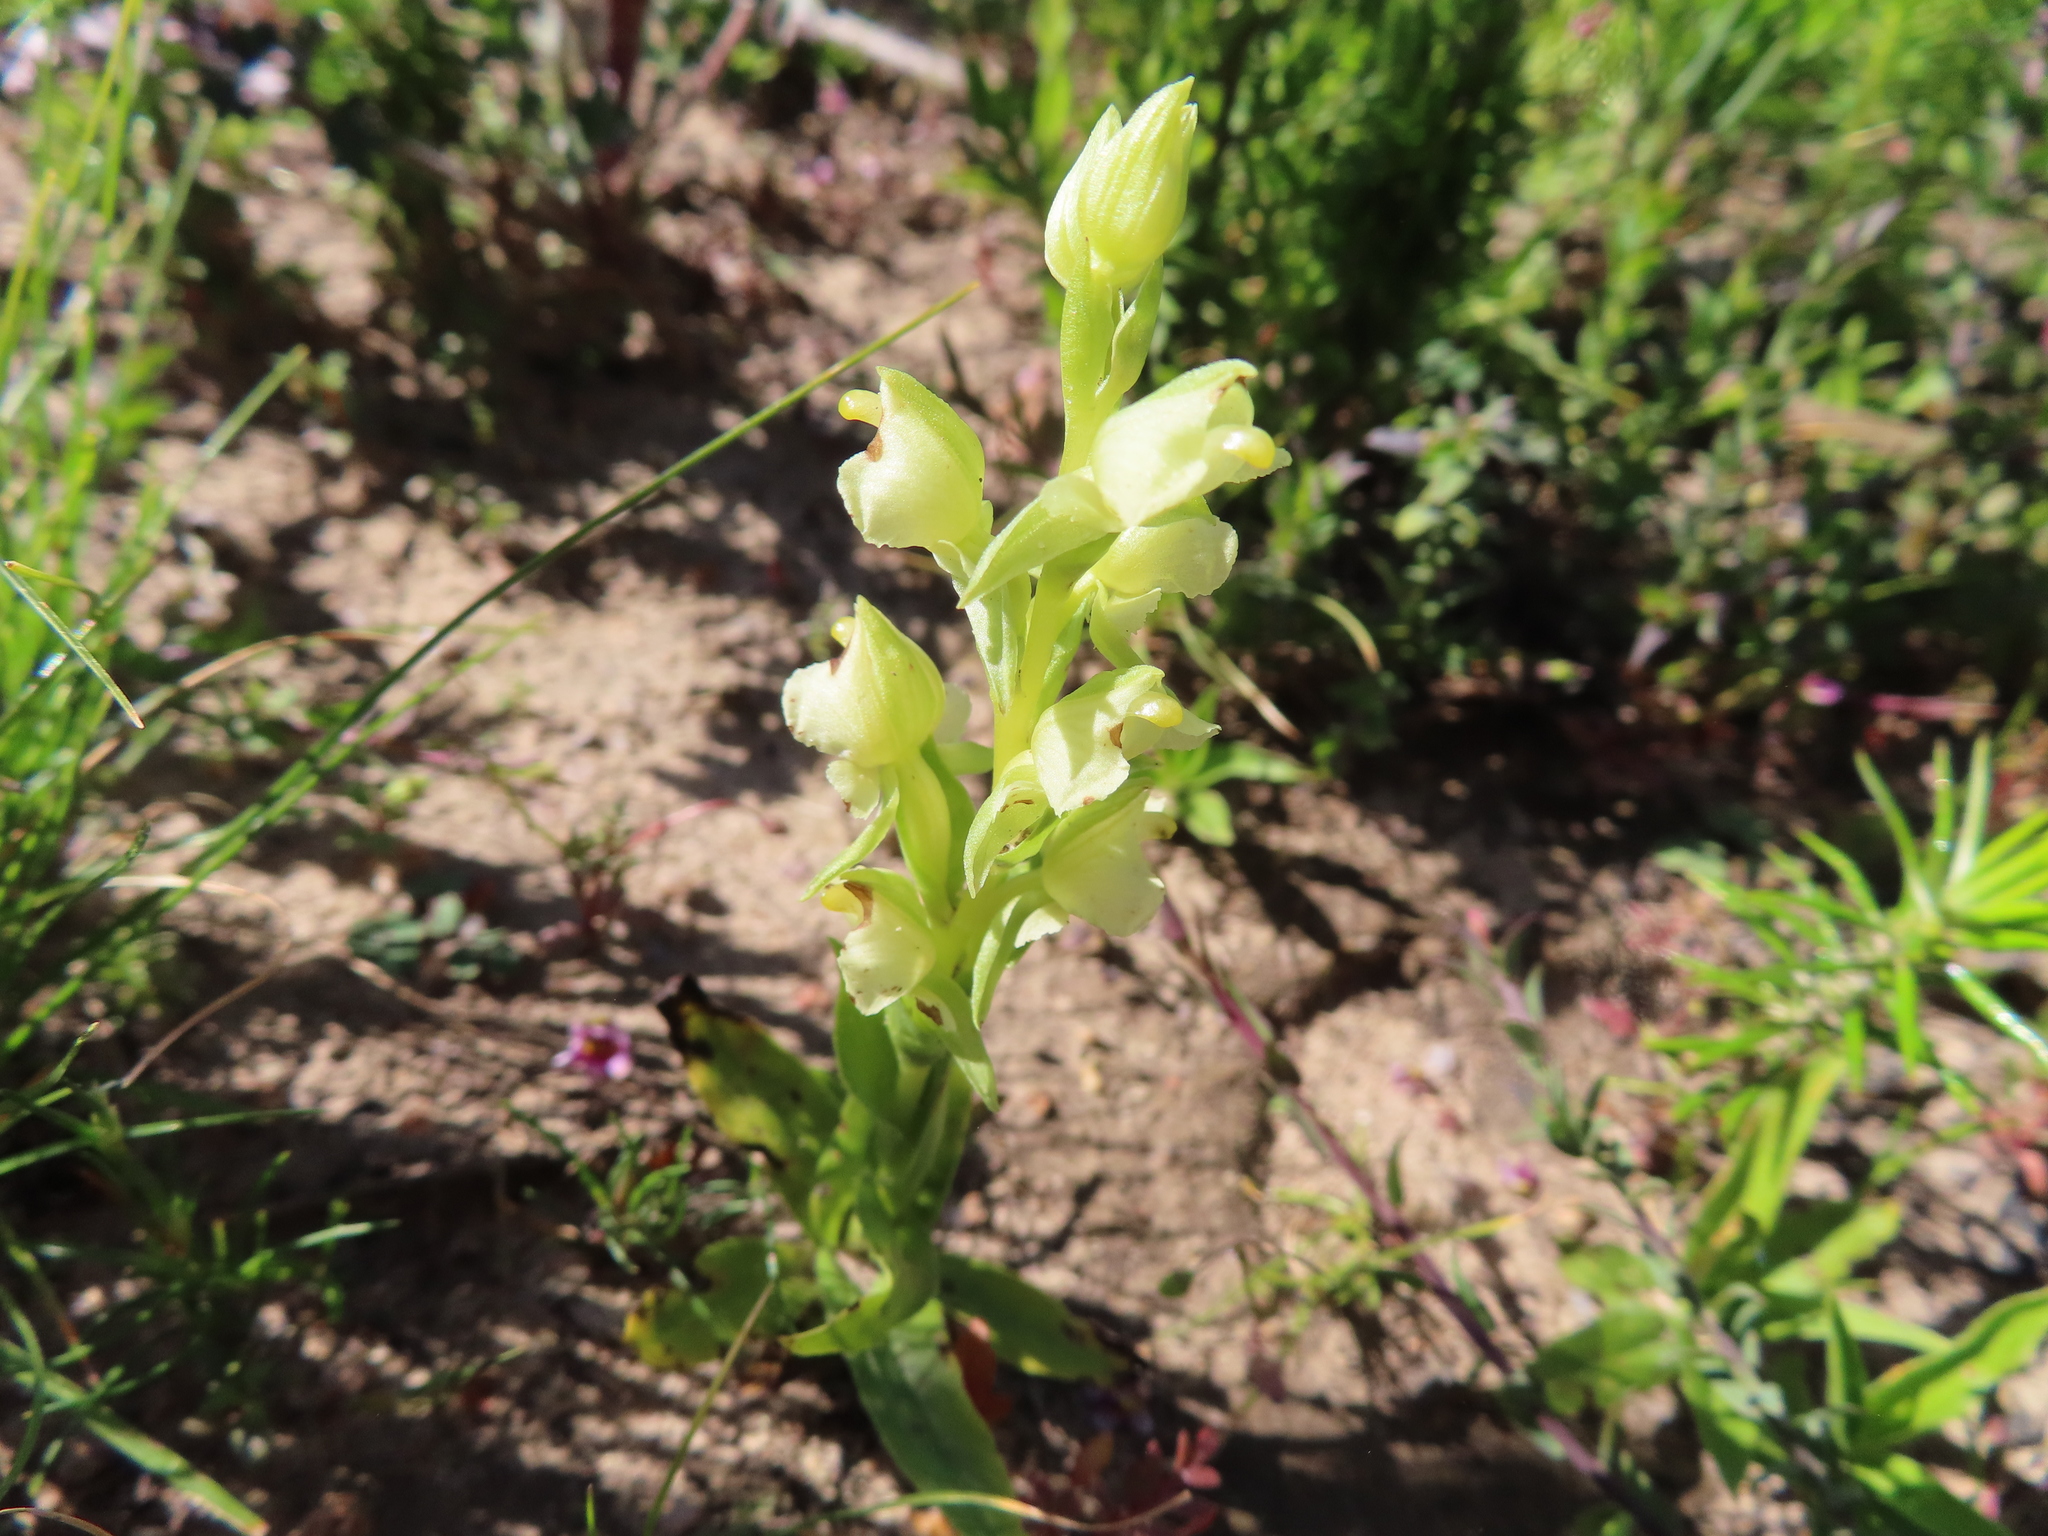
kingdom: Plantae
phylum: Tracheophyta
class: Liliopsida
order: Asparagales
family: Orchidaceae
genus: Pterygodium
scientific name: Pterygodium alatum
